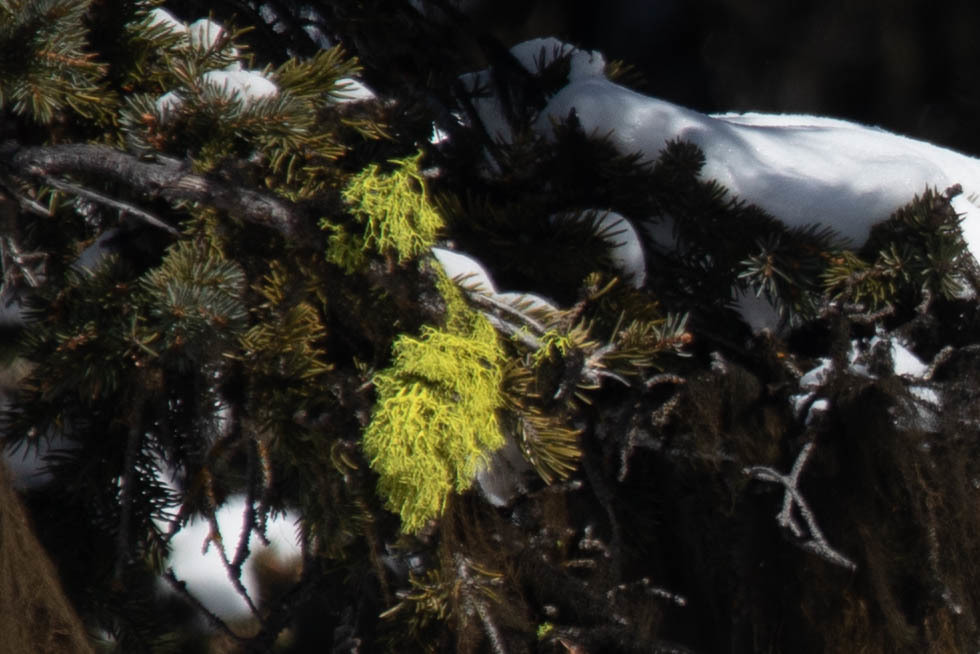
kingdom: Fungi
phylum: Ascomycota
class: Lecanoromycetes
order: Lecanorales
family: Parmeliaceae
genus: Letharia
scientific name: Letharia vulpina
